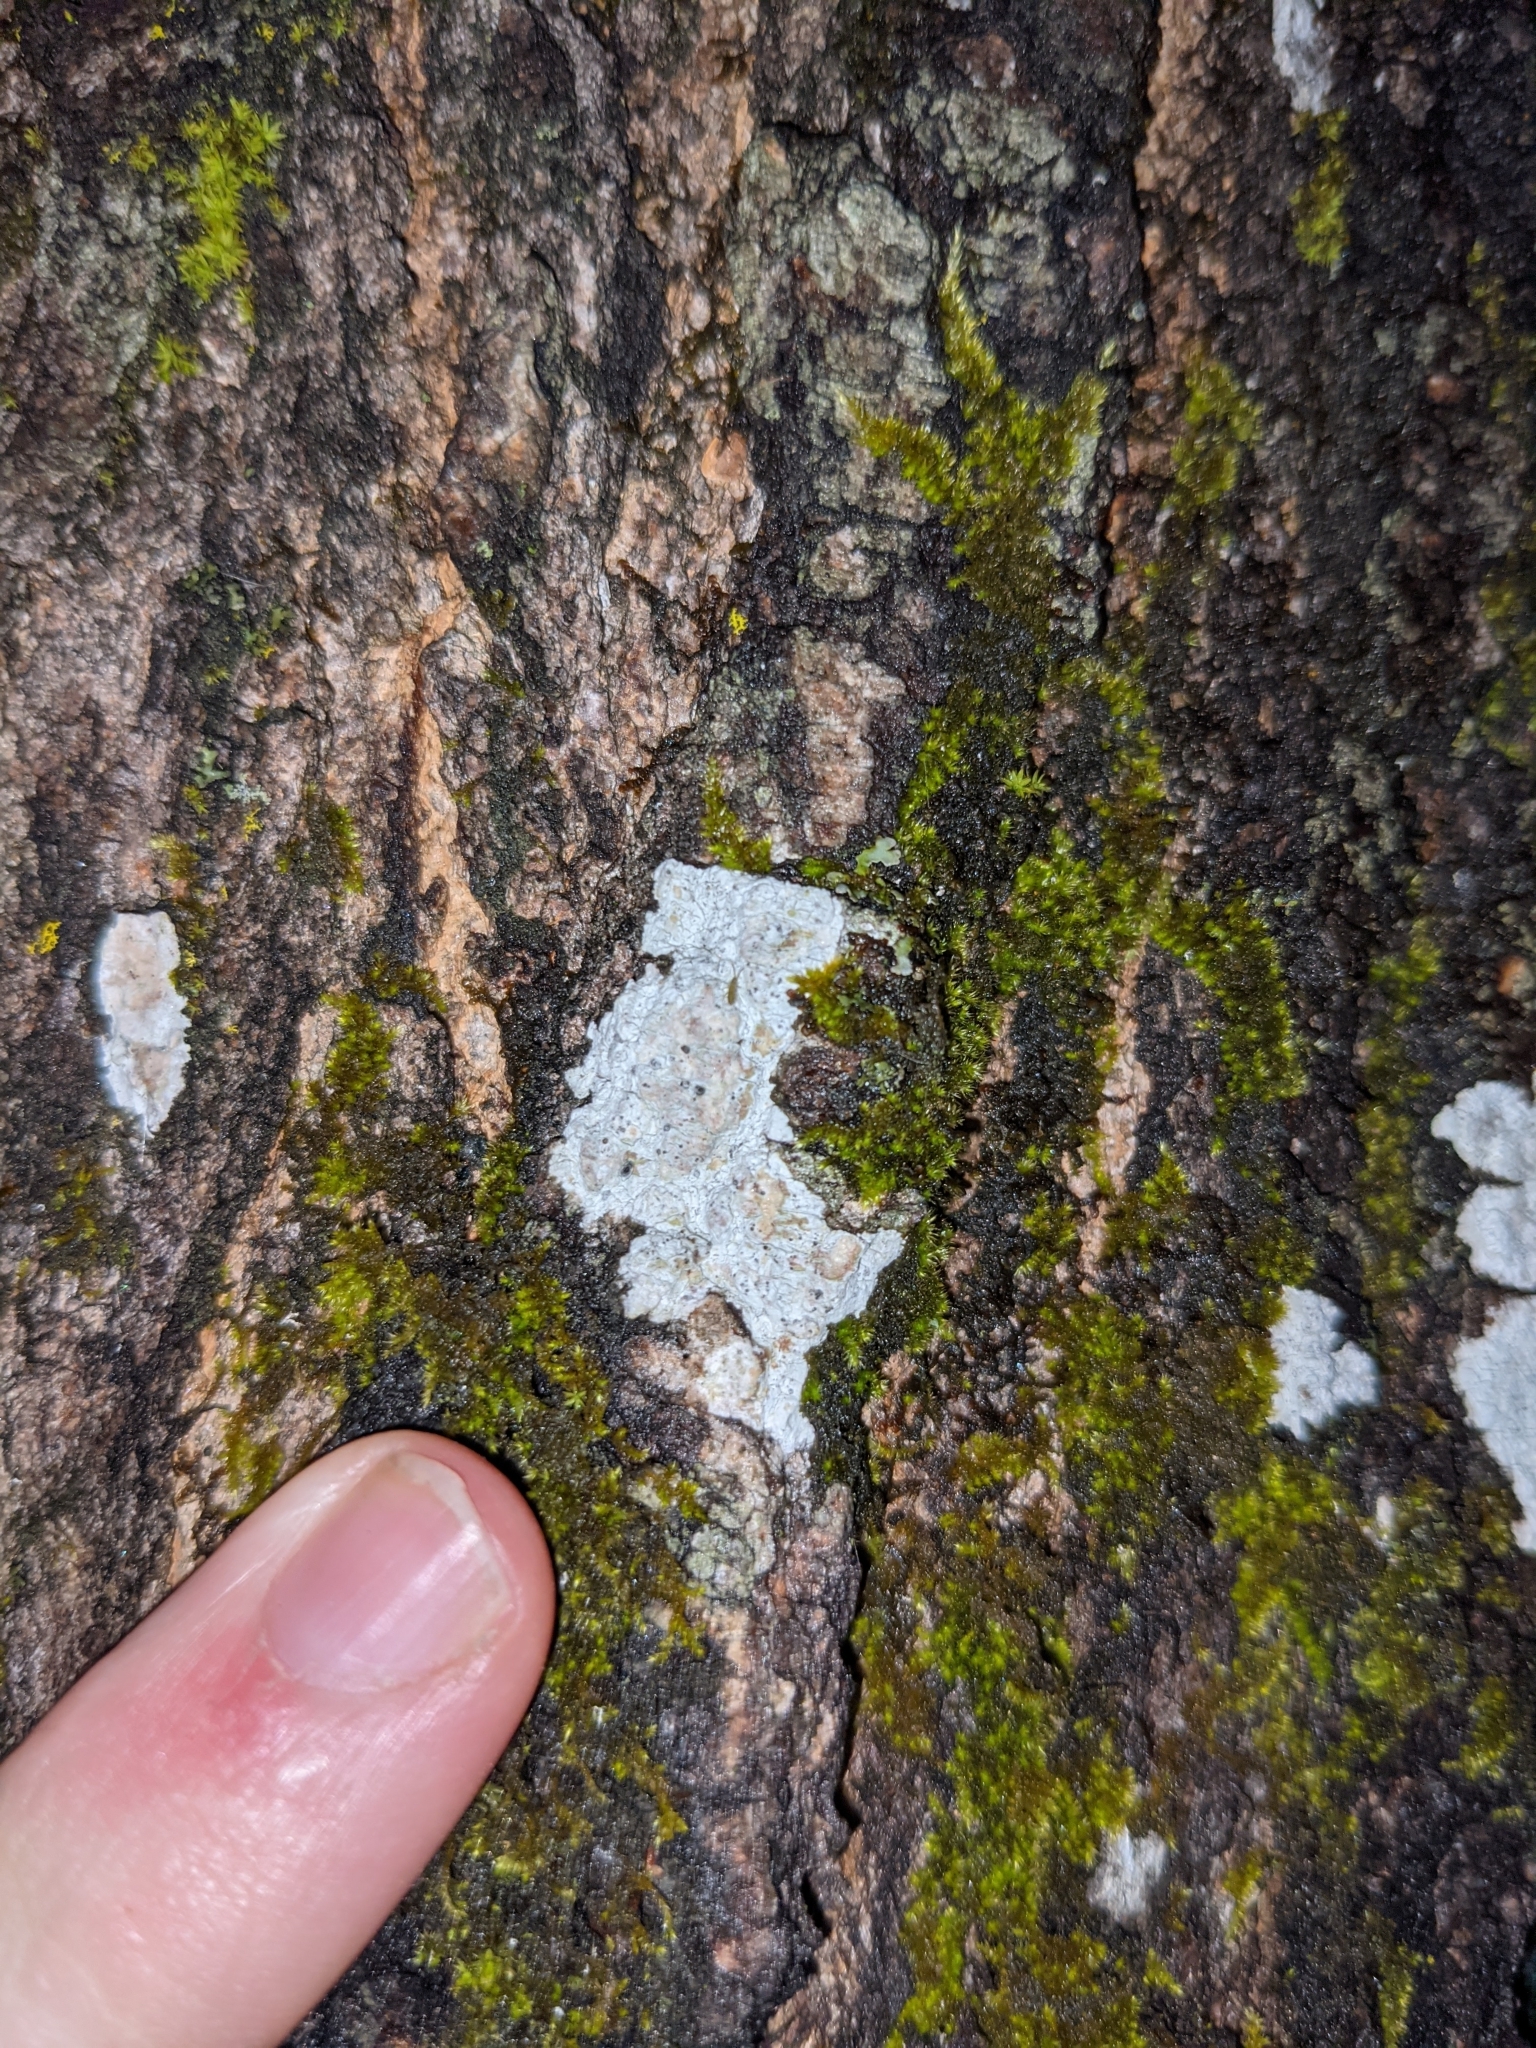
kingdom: Fungi
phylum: Ascomycota
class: Lecanoromycetes
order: Ostropales
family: Phlyctidaceae
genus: Phlyctis
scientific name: Phlyctis argena
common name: Whitewash lichen
